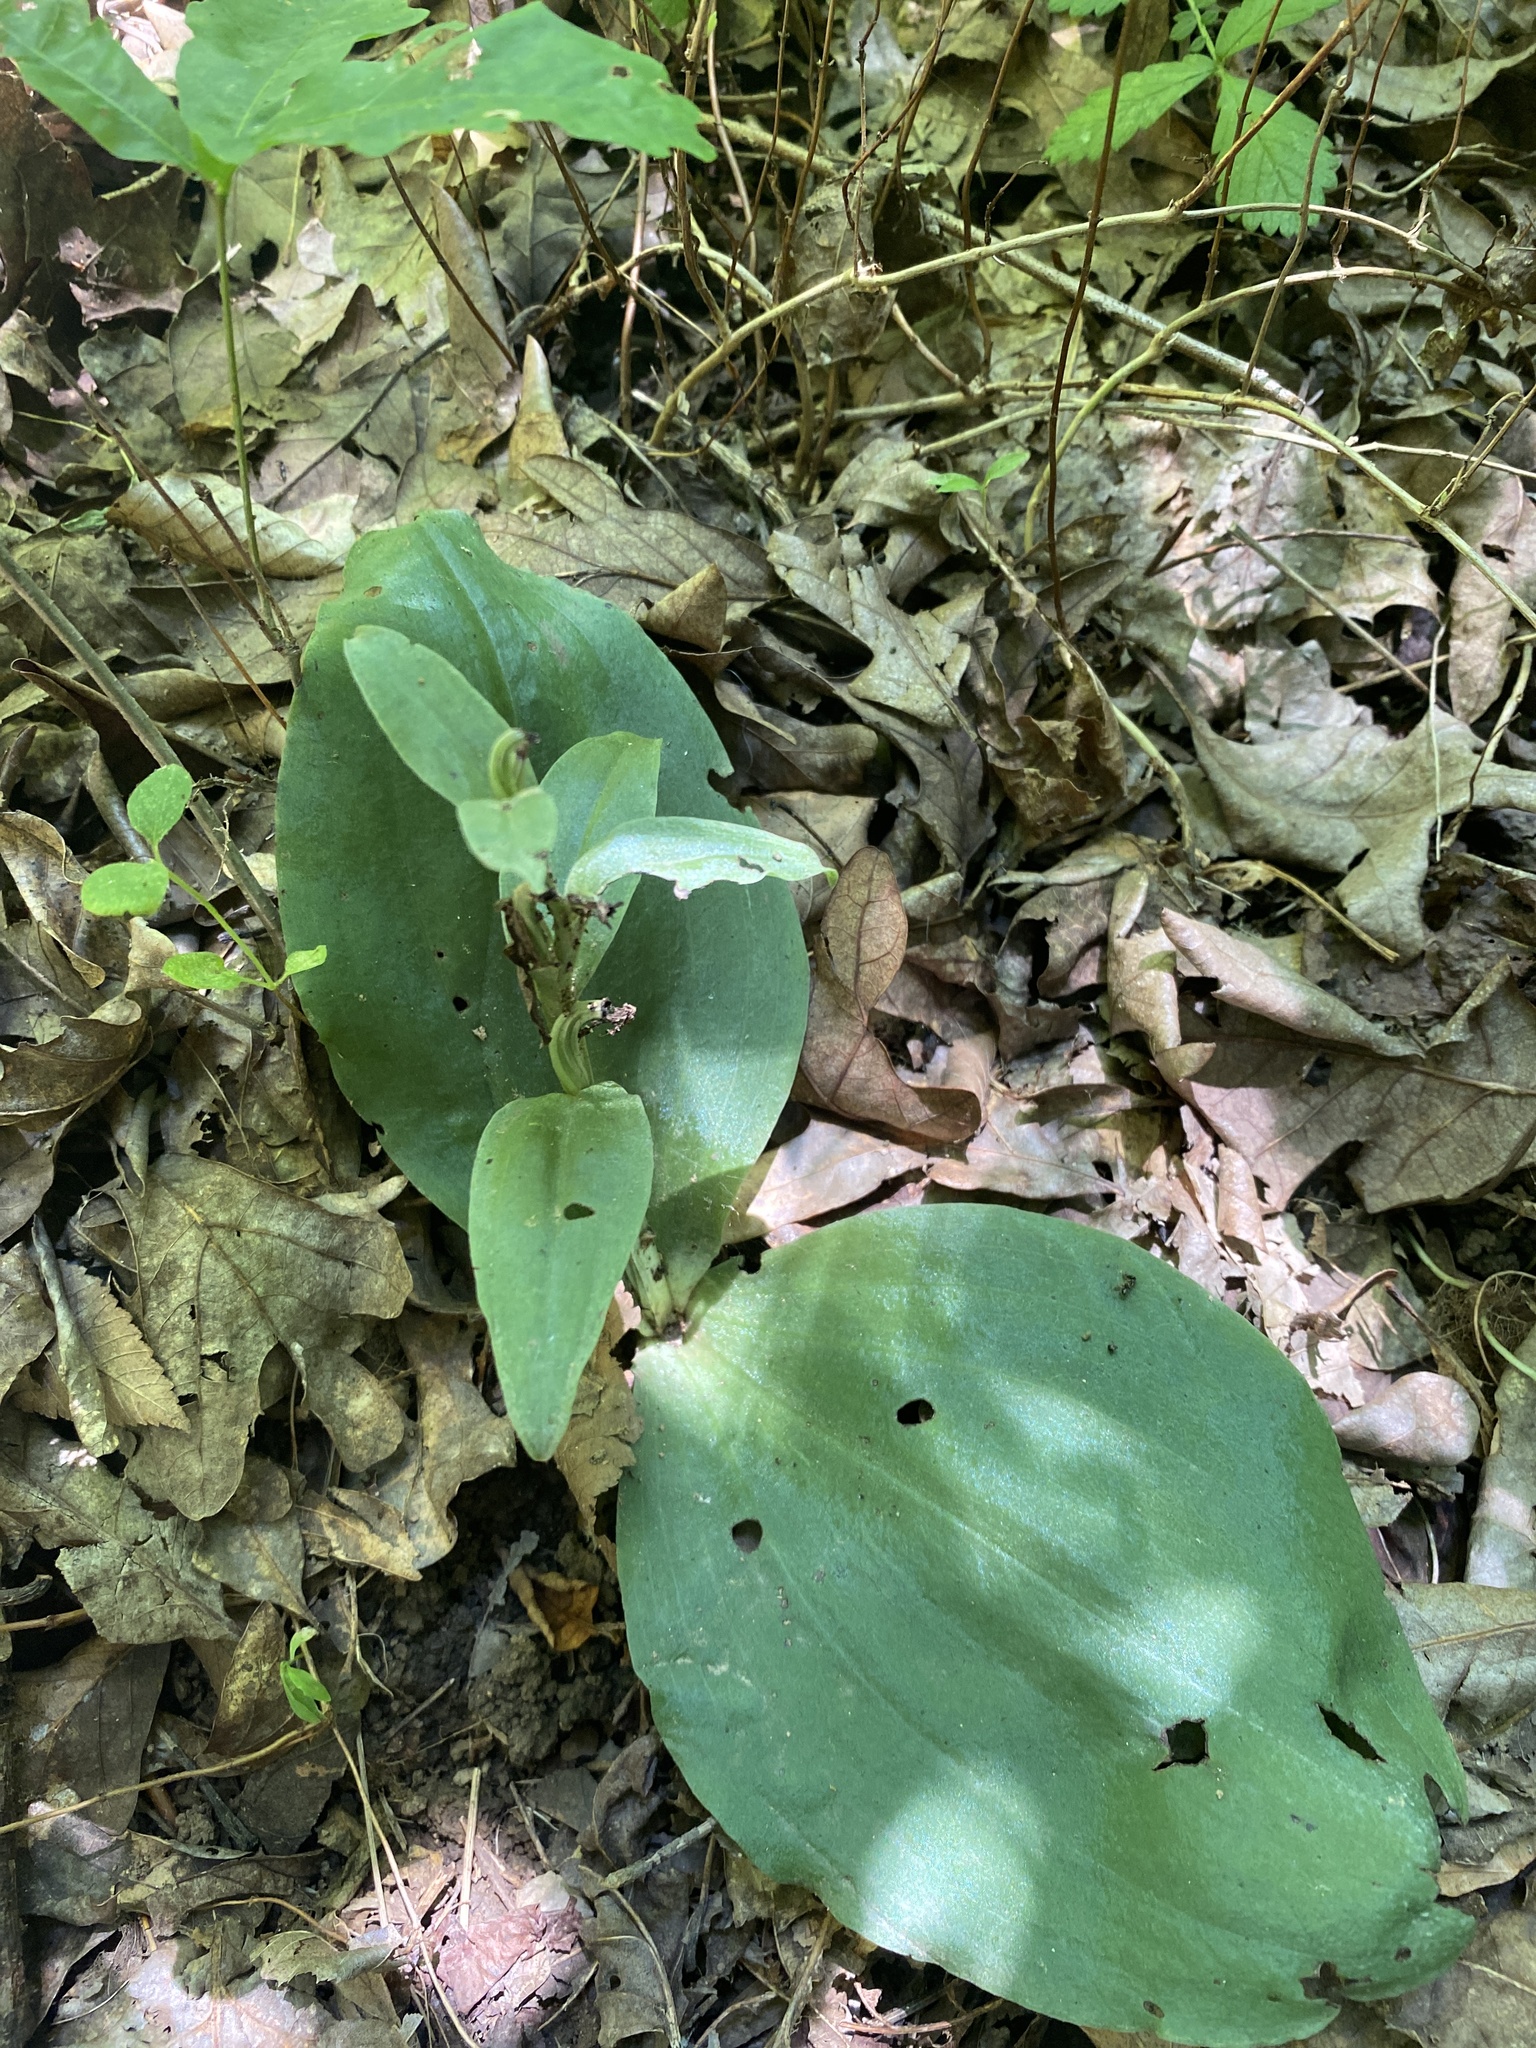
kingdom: Plantae
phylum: Tracheophyta
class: Liliopsida
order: Asparagales
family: Orchidaceae
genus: Galearis
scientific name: Galearis spectabilis
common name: Purple-hooded orchis
